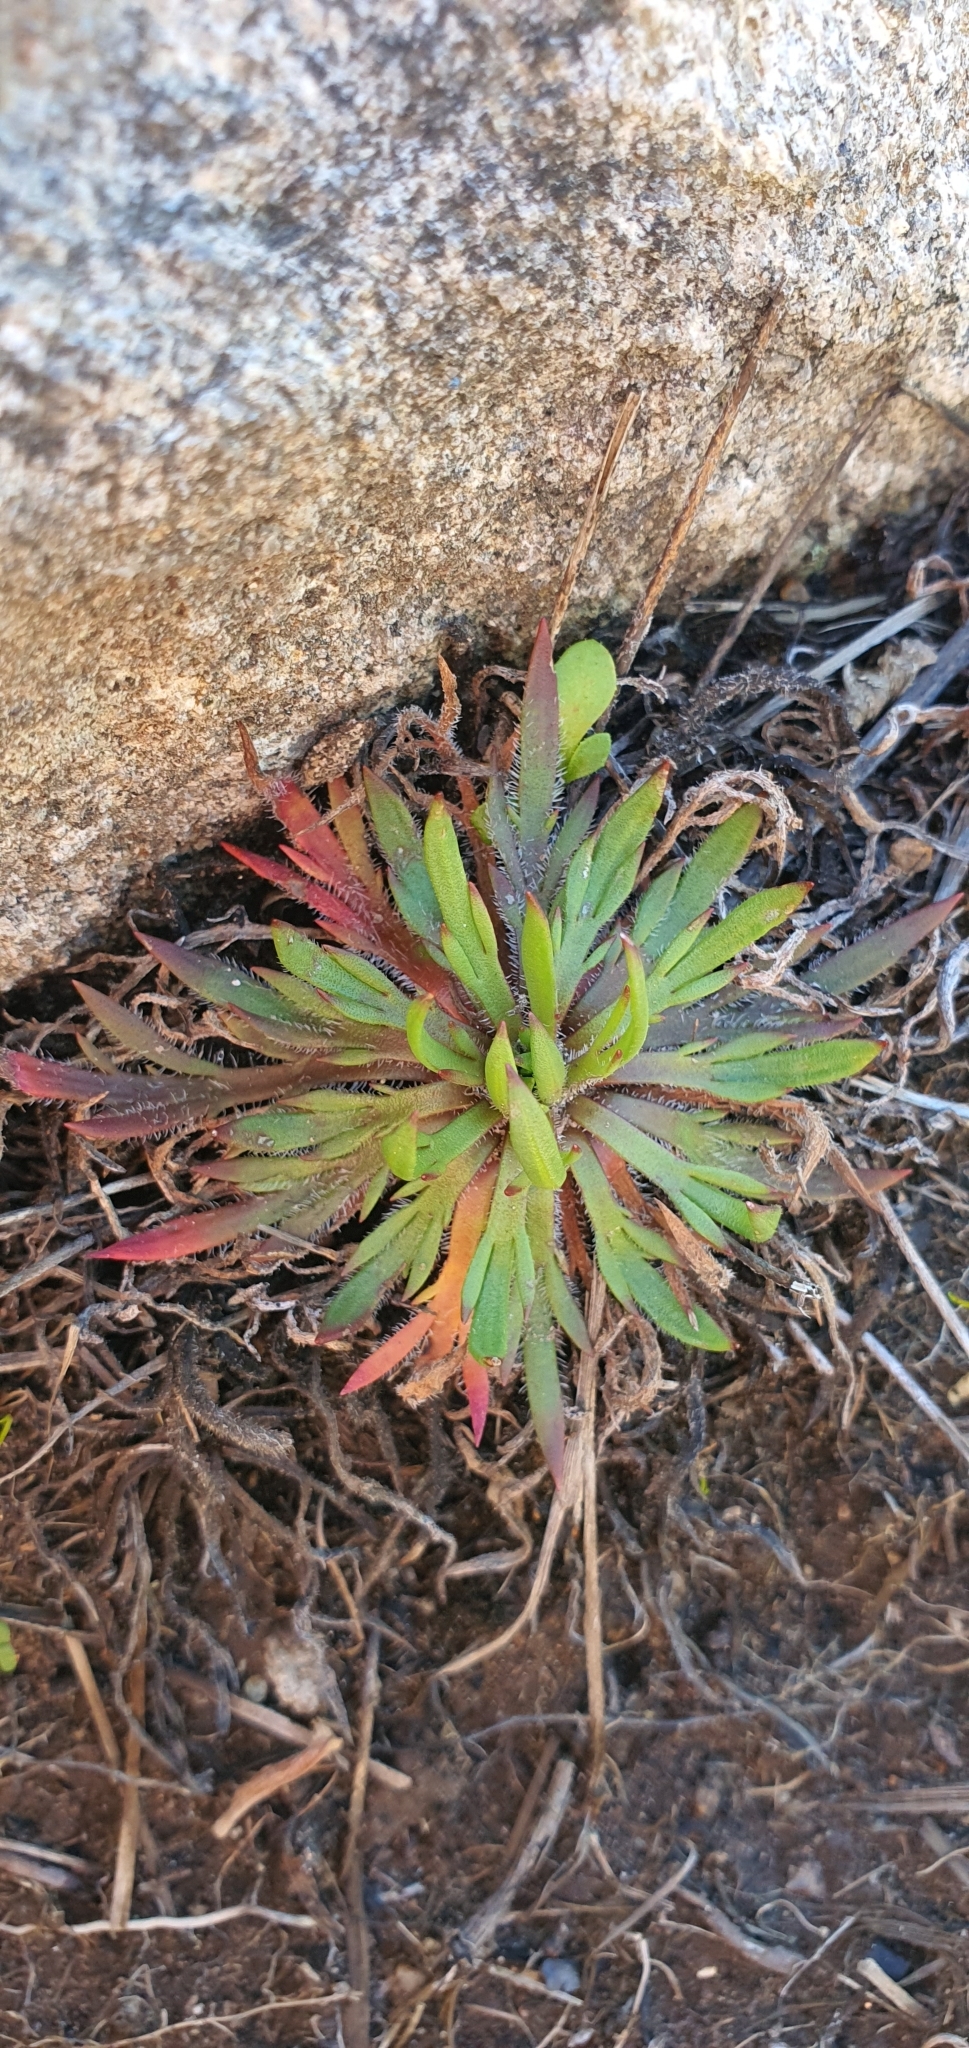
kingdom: Plantae
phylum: Tracheophyta
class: Magnoliopsida
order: Lamiales
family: Plantaginaceae
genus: Plantago
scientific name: Plantago coronopus
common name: Buck's-horn plantain
